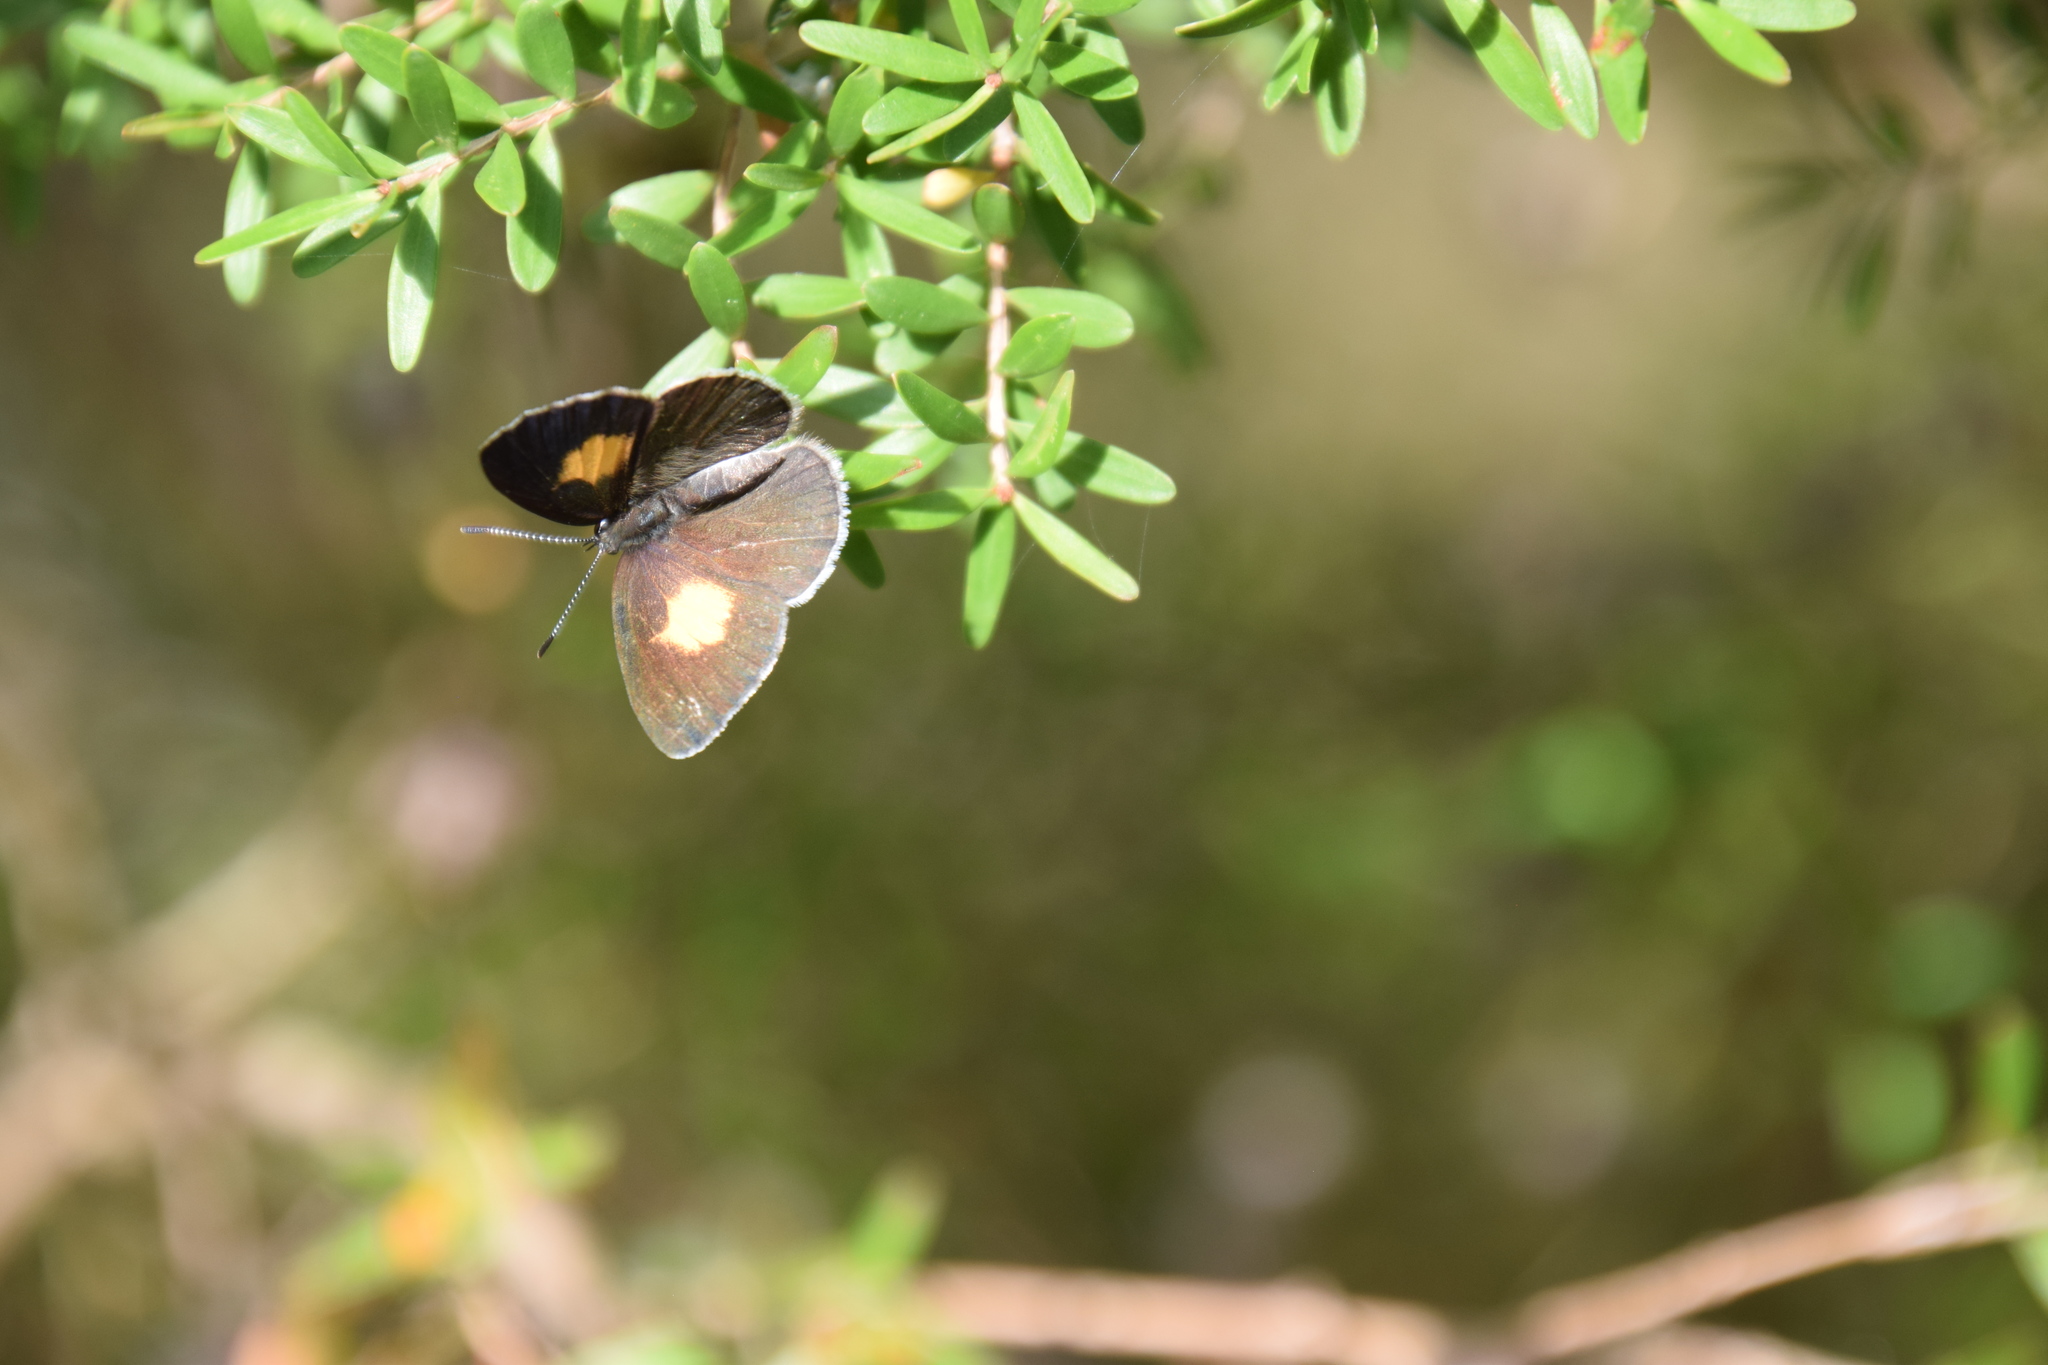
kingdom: Animalia
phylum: Arthropoda
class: Insecta
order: Lepidoptera
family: Lycaenidae
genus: Candalides
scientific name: Candalides xanthospilos
